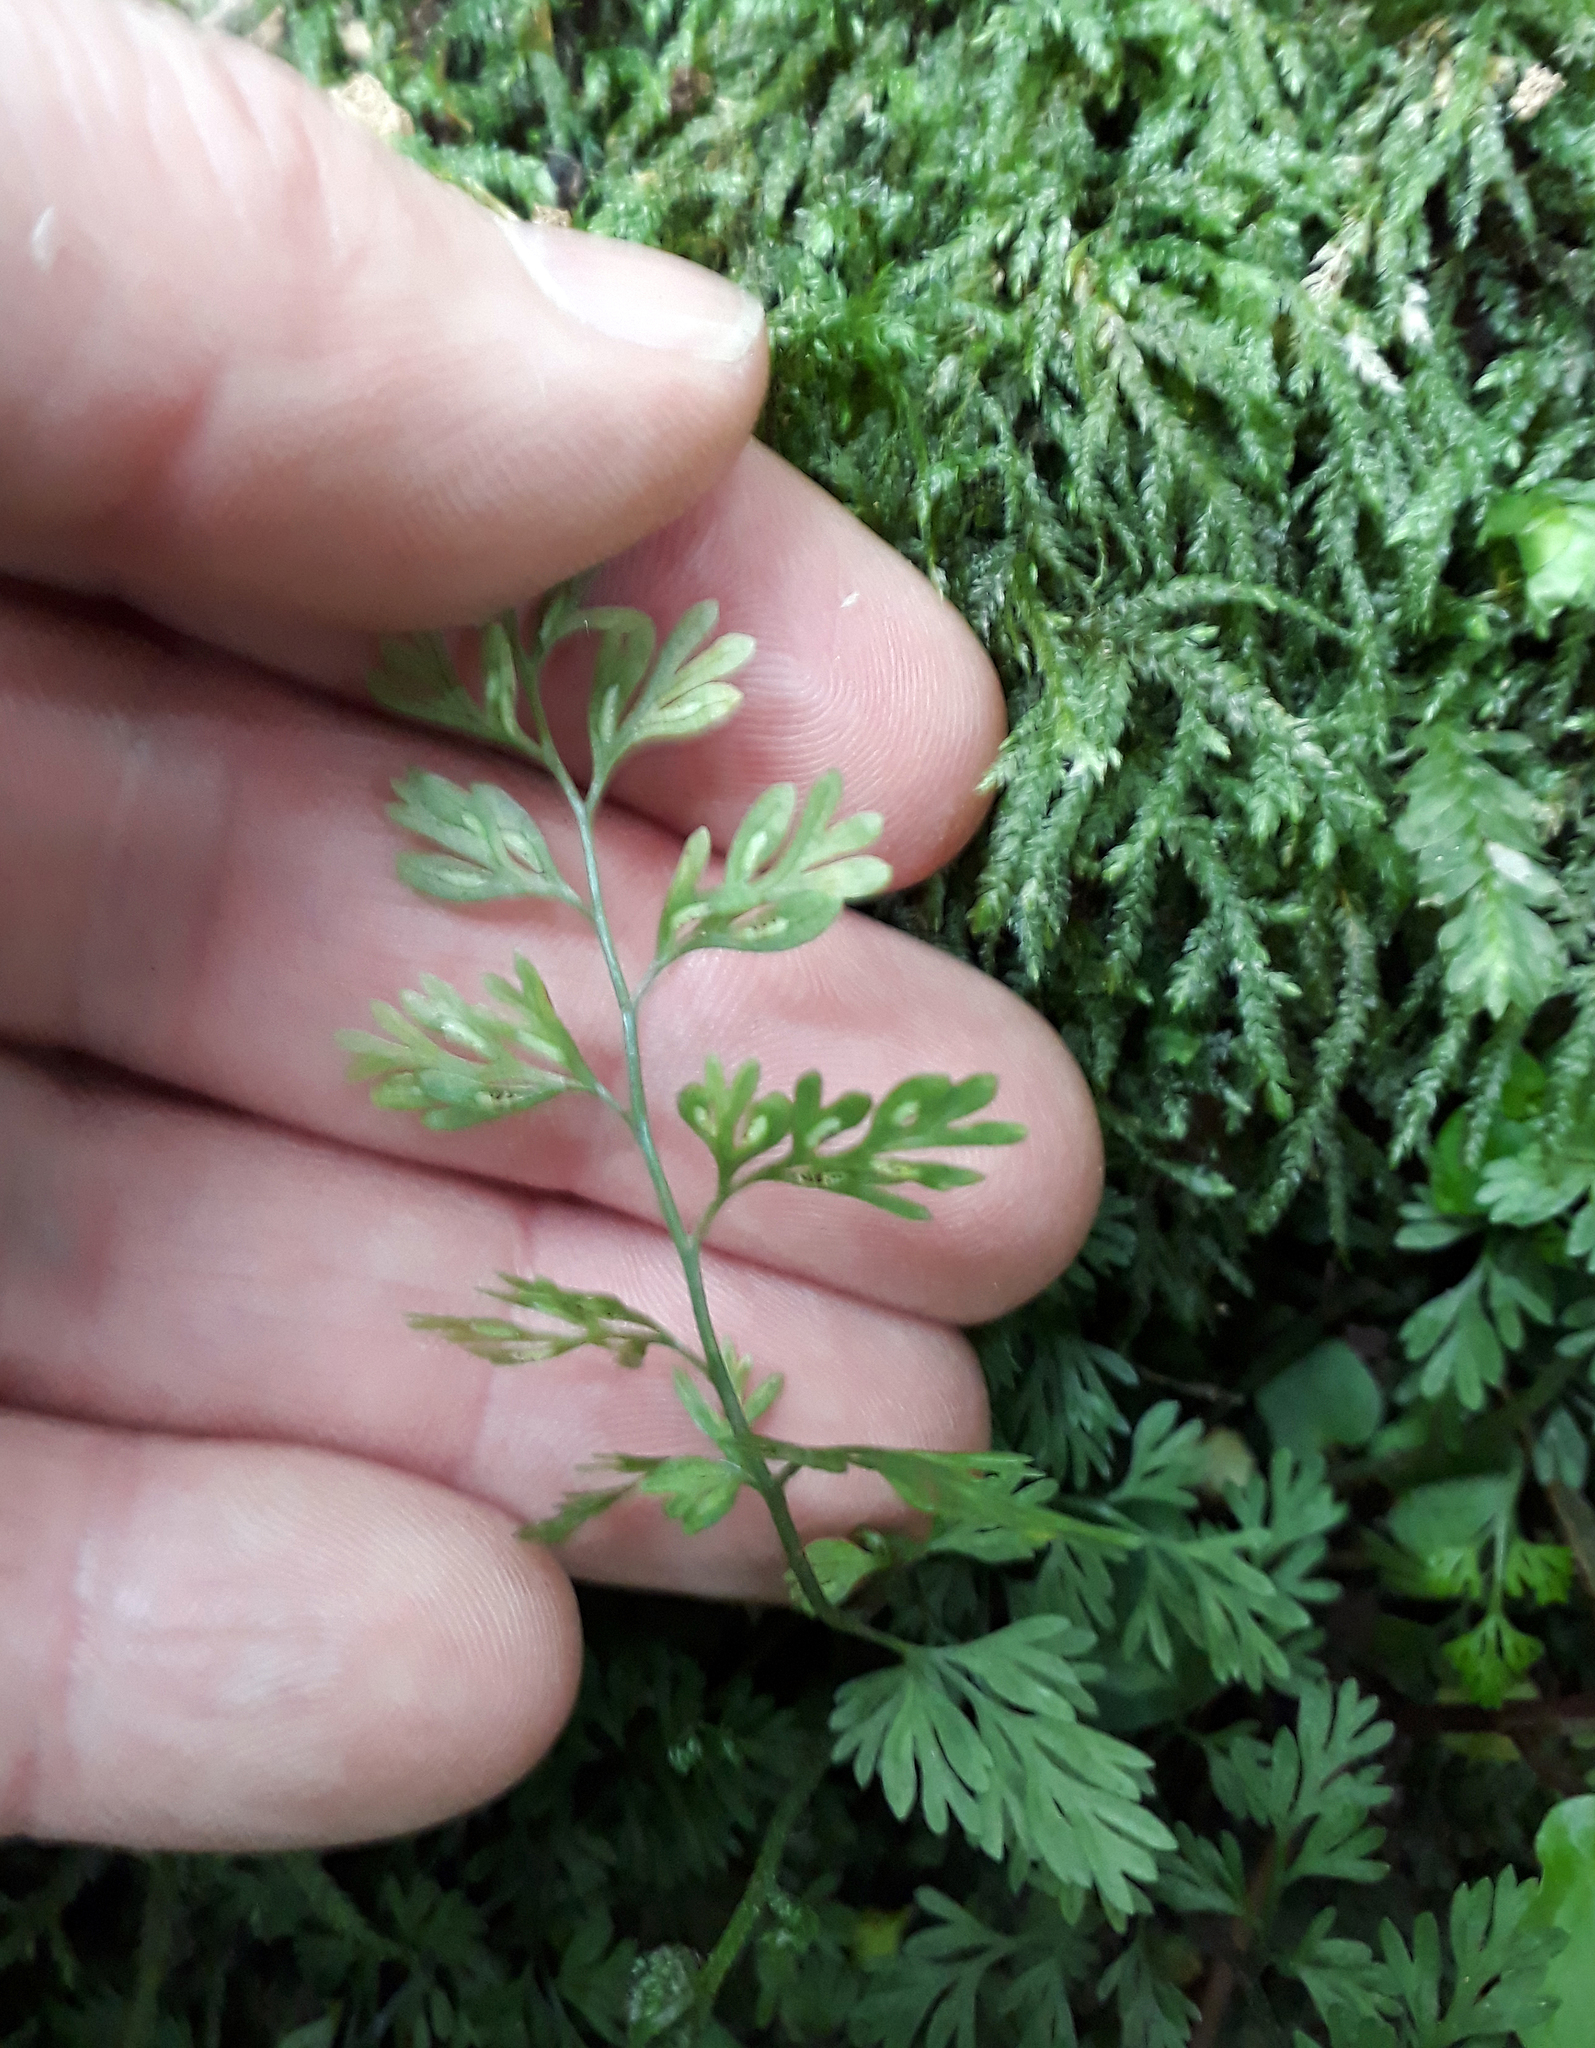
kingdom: Plantae
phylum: Tracheophyta
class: Polypodiopsida
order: Polypodiales
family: Aspleniaceae
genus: Asplenium
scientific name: Asplenium hookerianum
